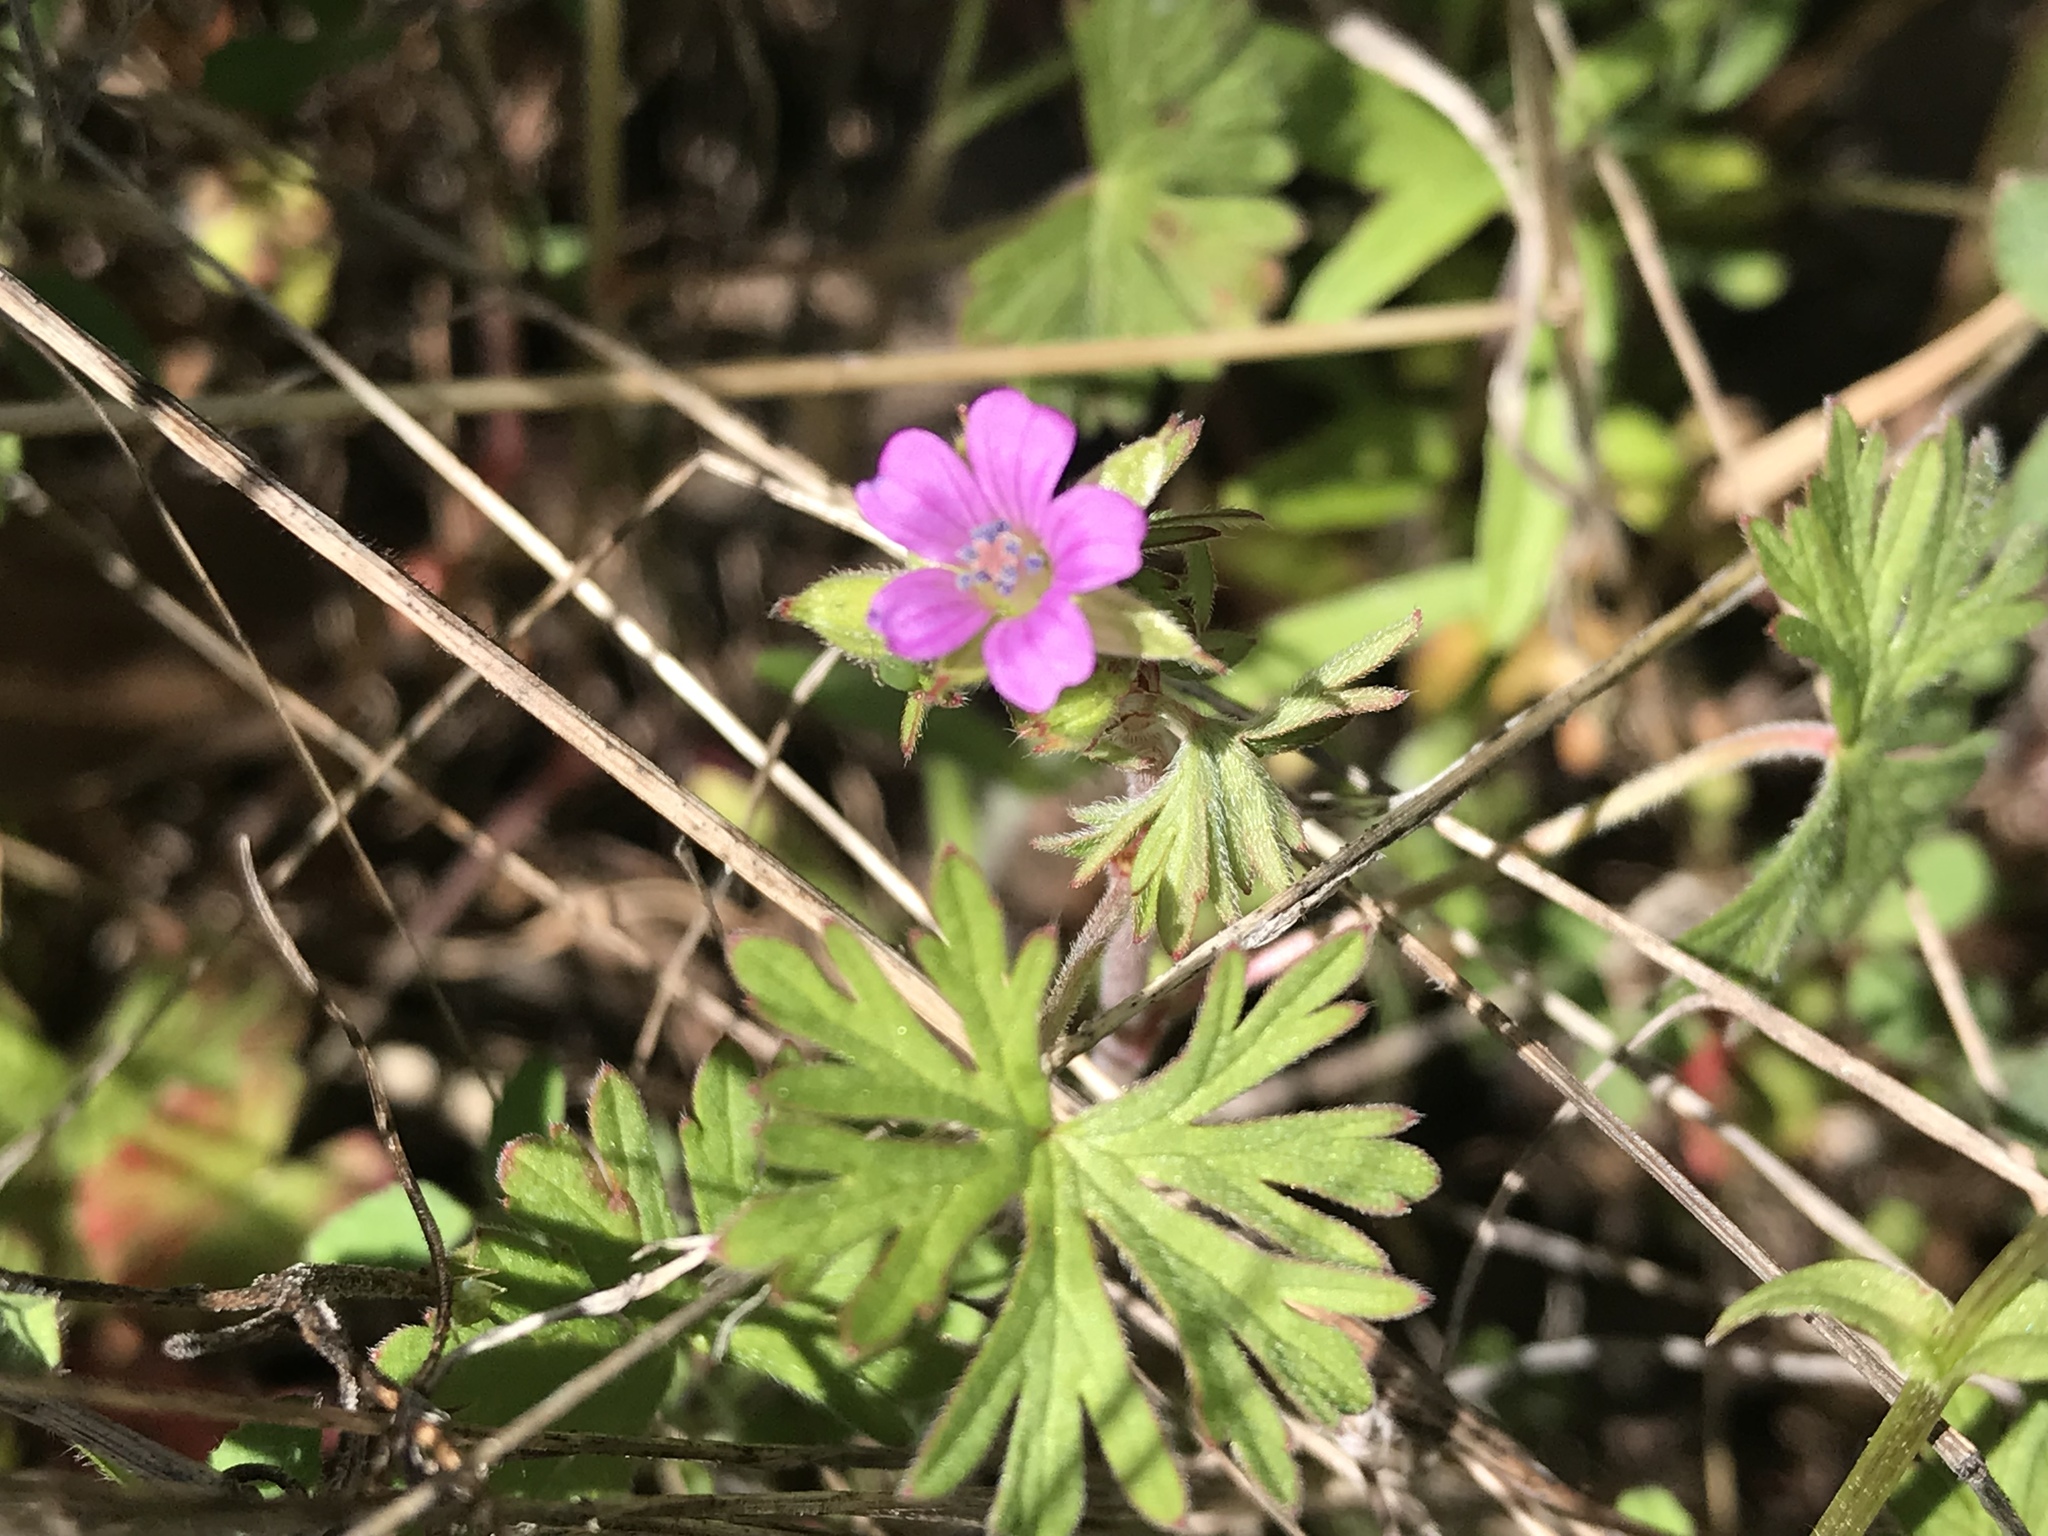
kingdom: Plantae
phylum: Tracheophyta
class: Magnoliopsida
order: Geraniales
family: Geraniaceae
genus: Geranium
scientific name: Geranium dissectum
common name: Cut-leaved crane's-bill
